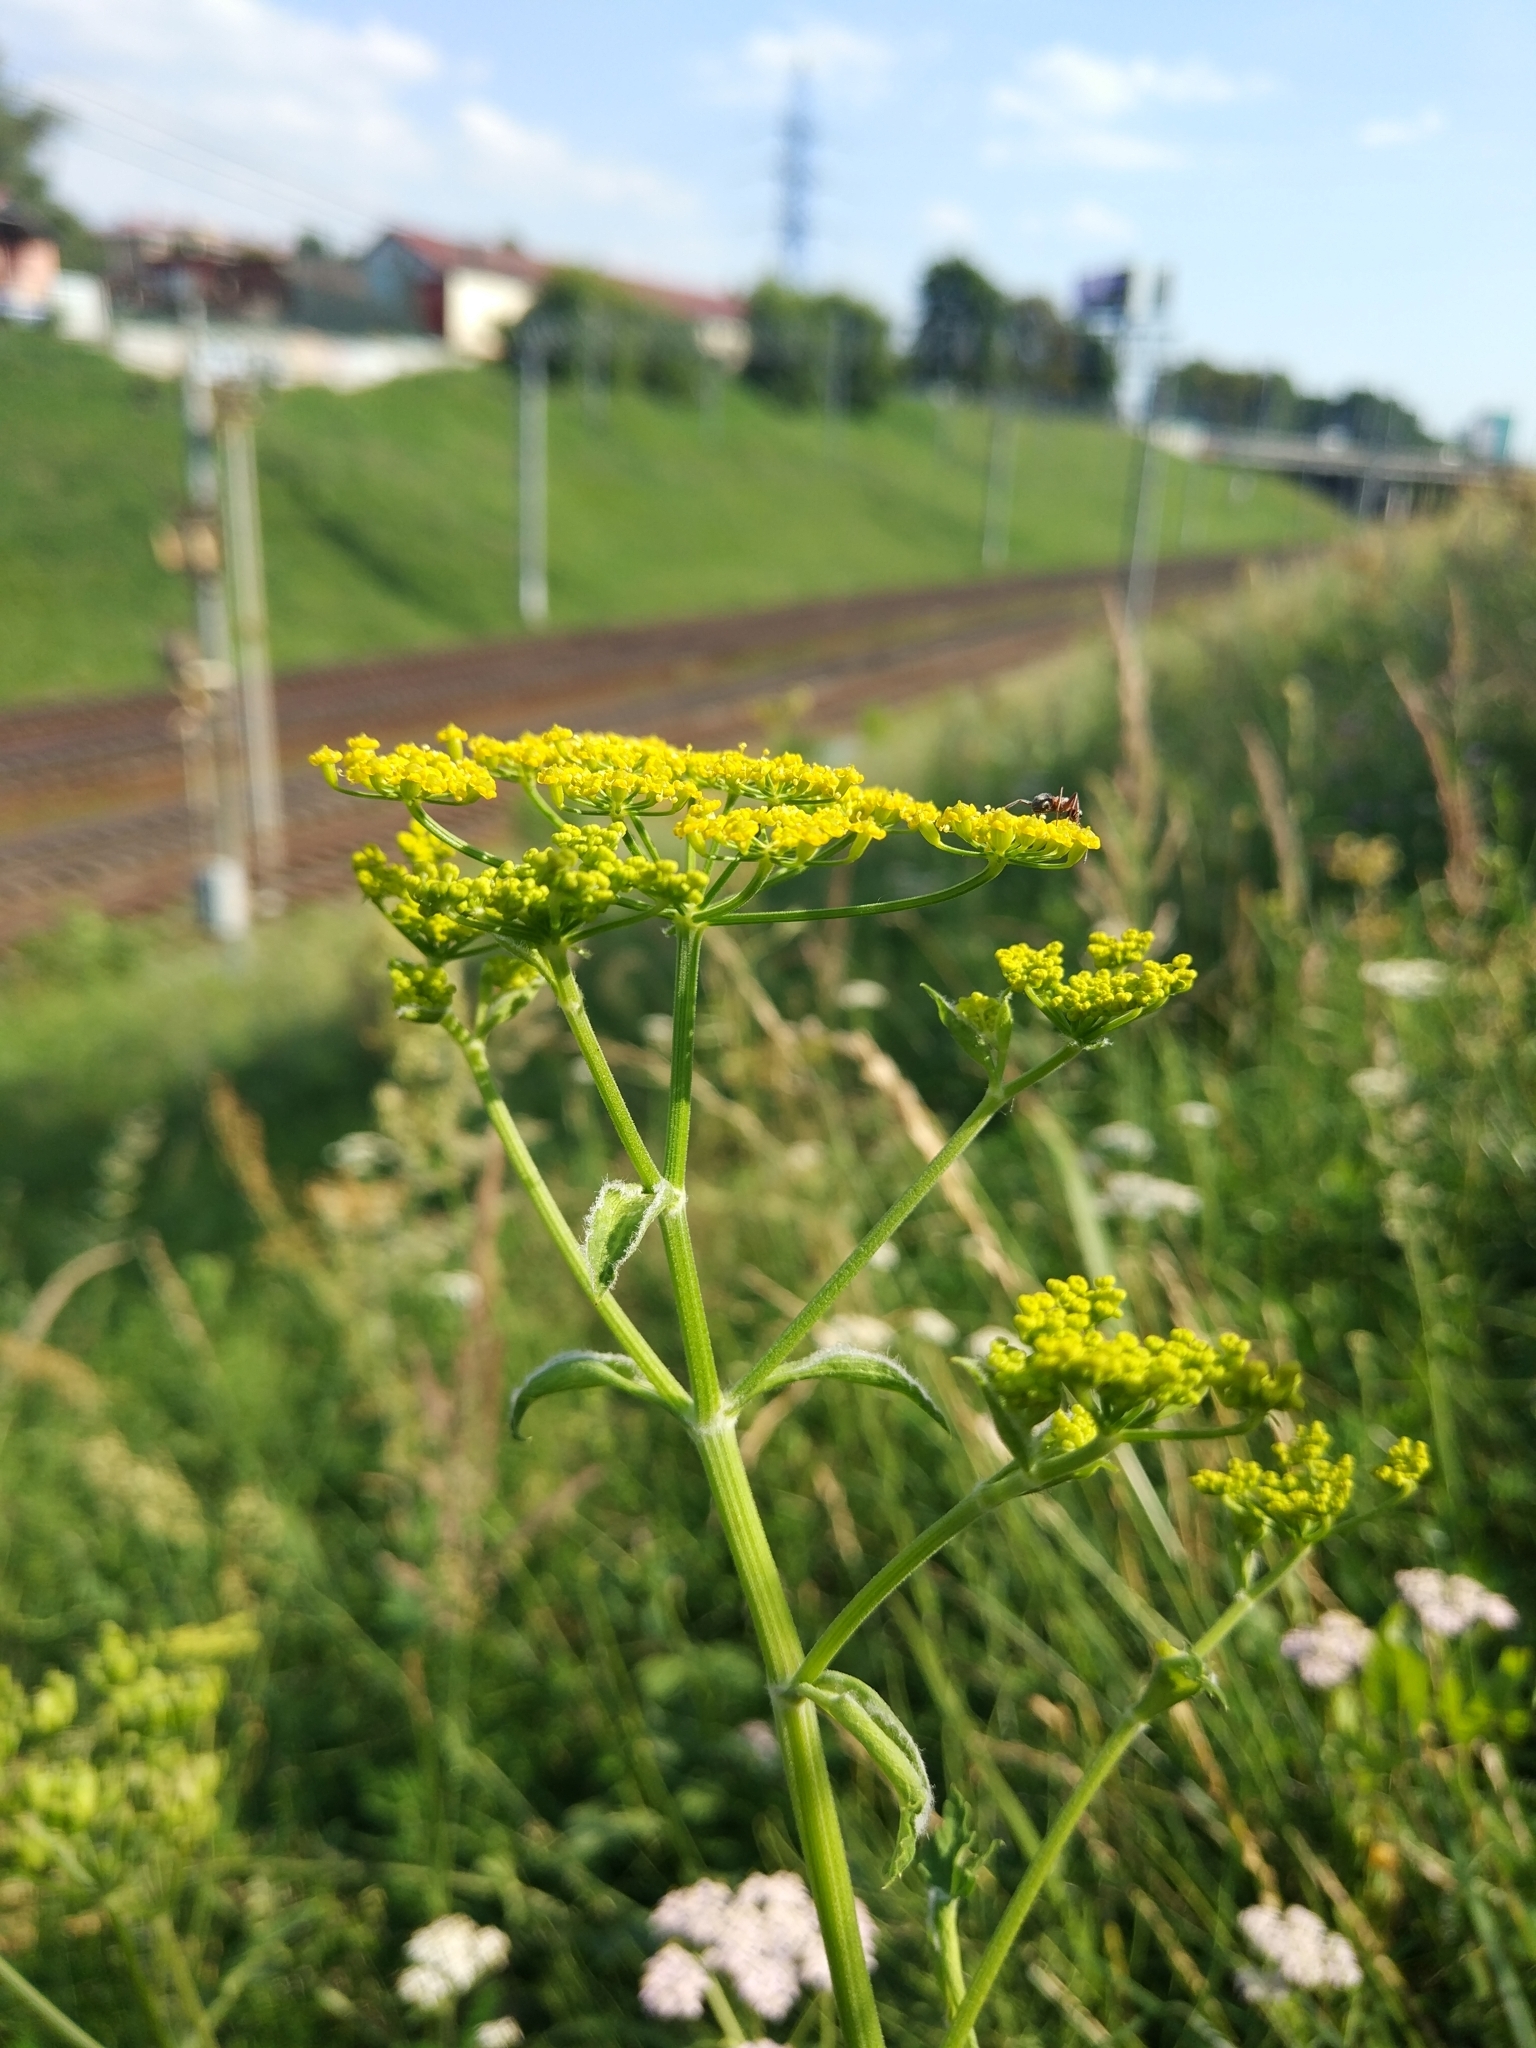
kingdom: Plantae
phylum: Tracheophyta
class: Magnoliopsida
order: Apiales
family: Apiaceae
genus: Pastinaca
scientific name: Pastinaca sativa
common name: Wild parsnip
